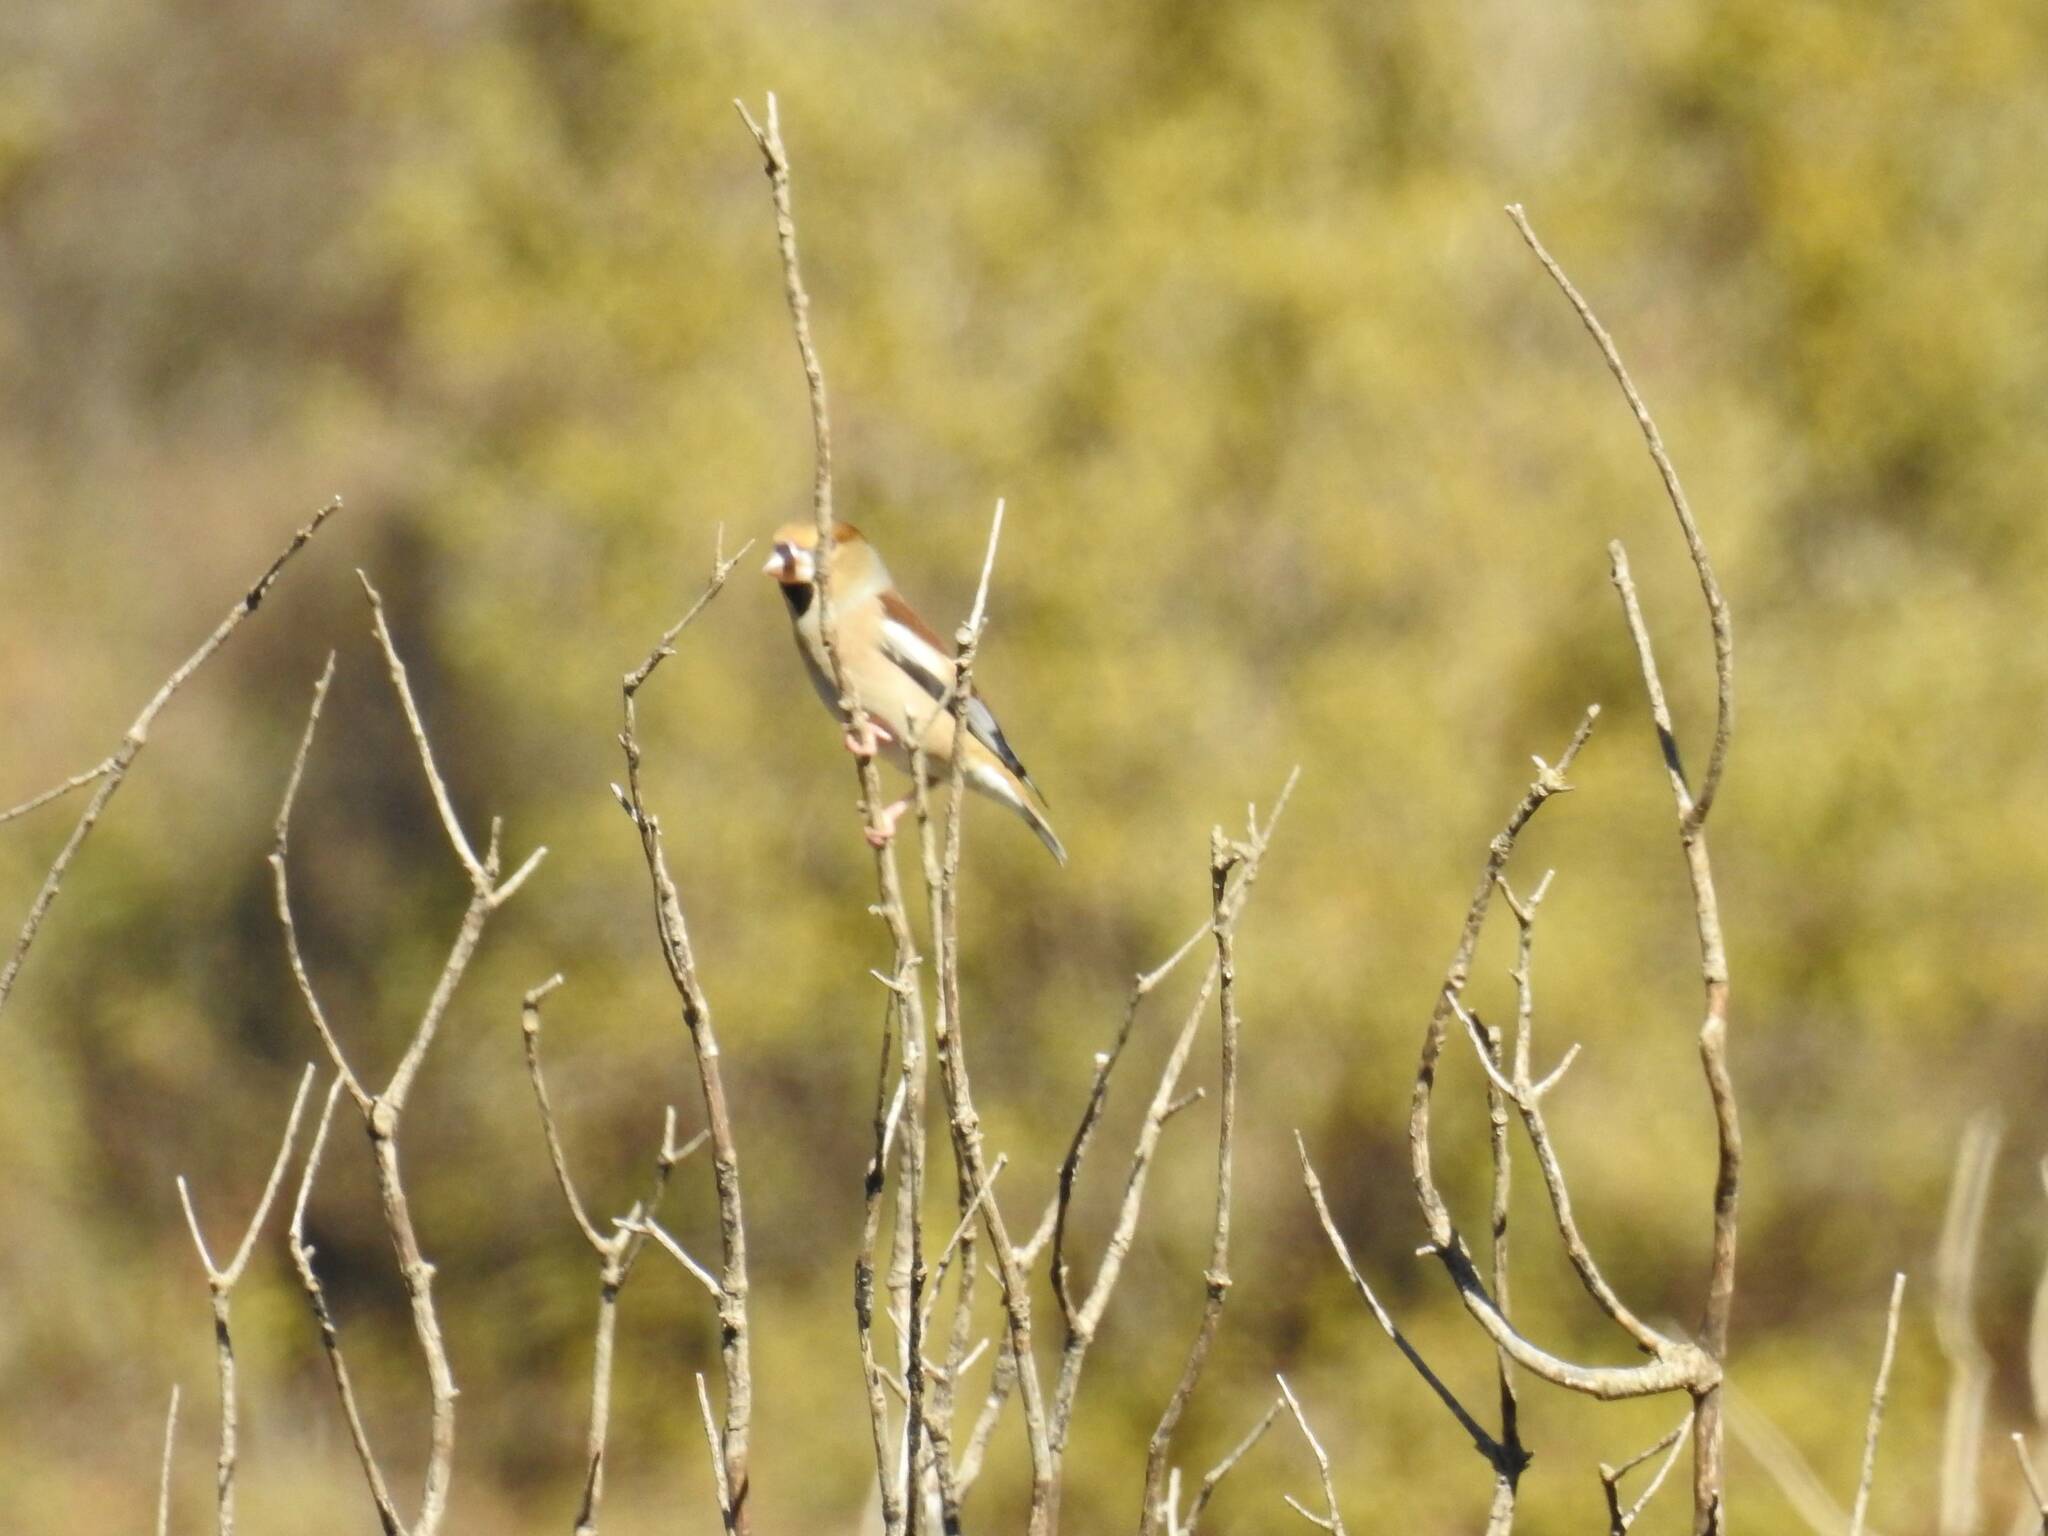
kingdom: Animalia
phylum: Chordata
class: Aves
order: Passeriformes
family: Fringillidae
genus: Coccothraustes
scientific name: Coccothraustes coccothraustes
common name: Hawfinch
